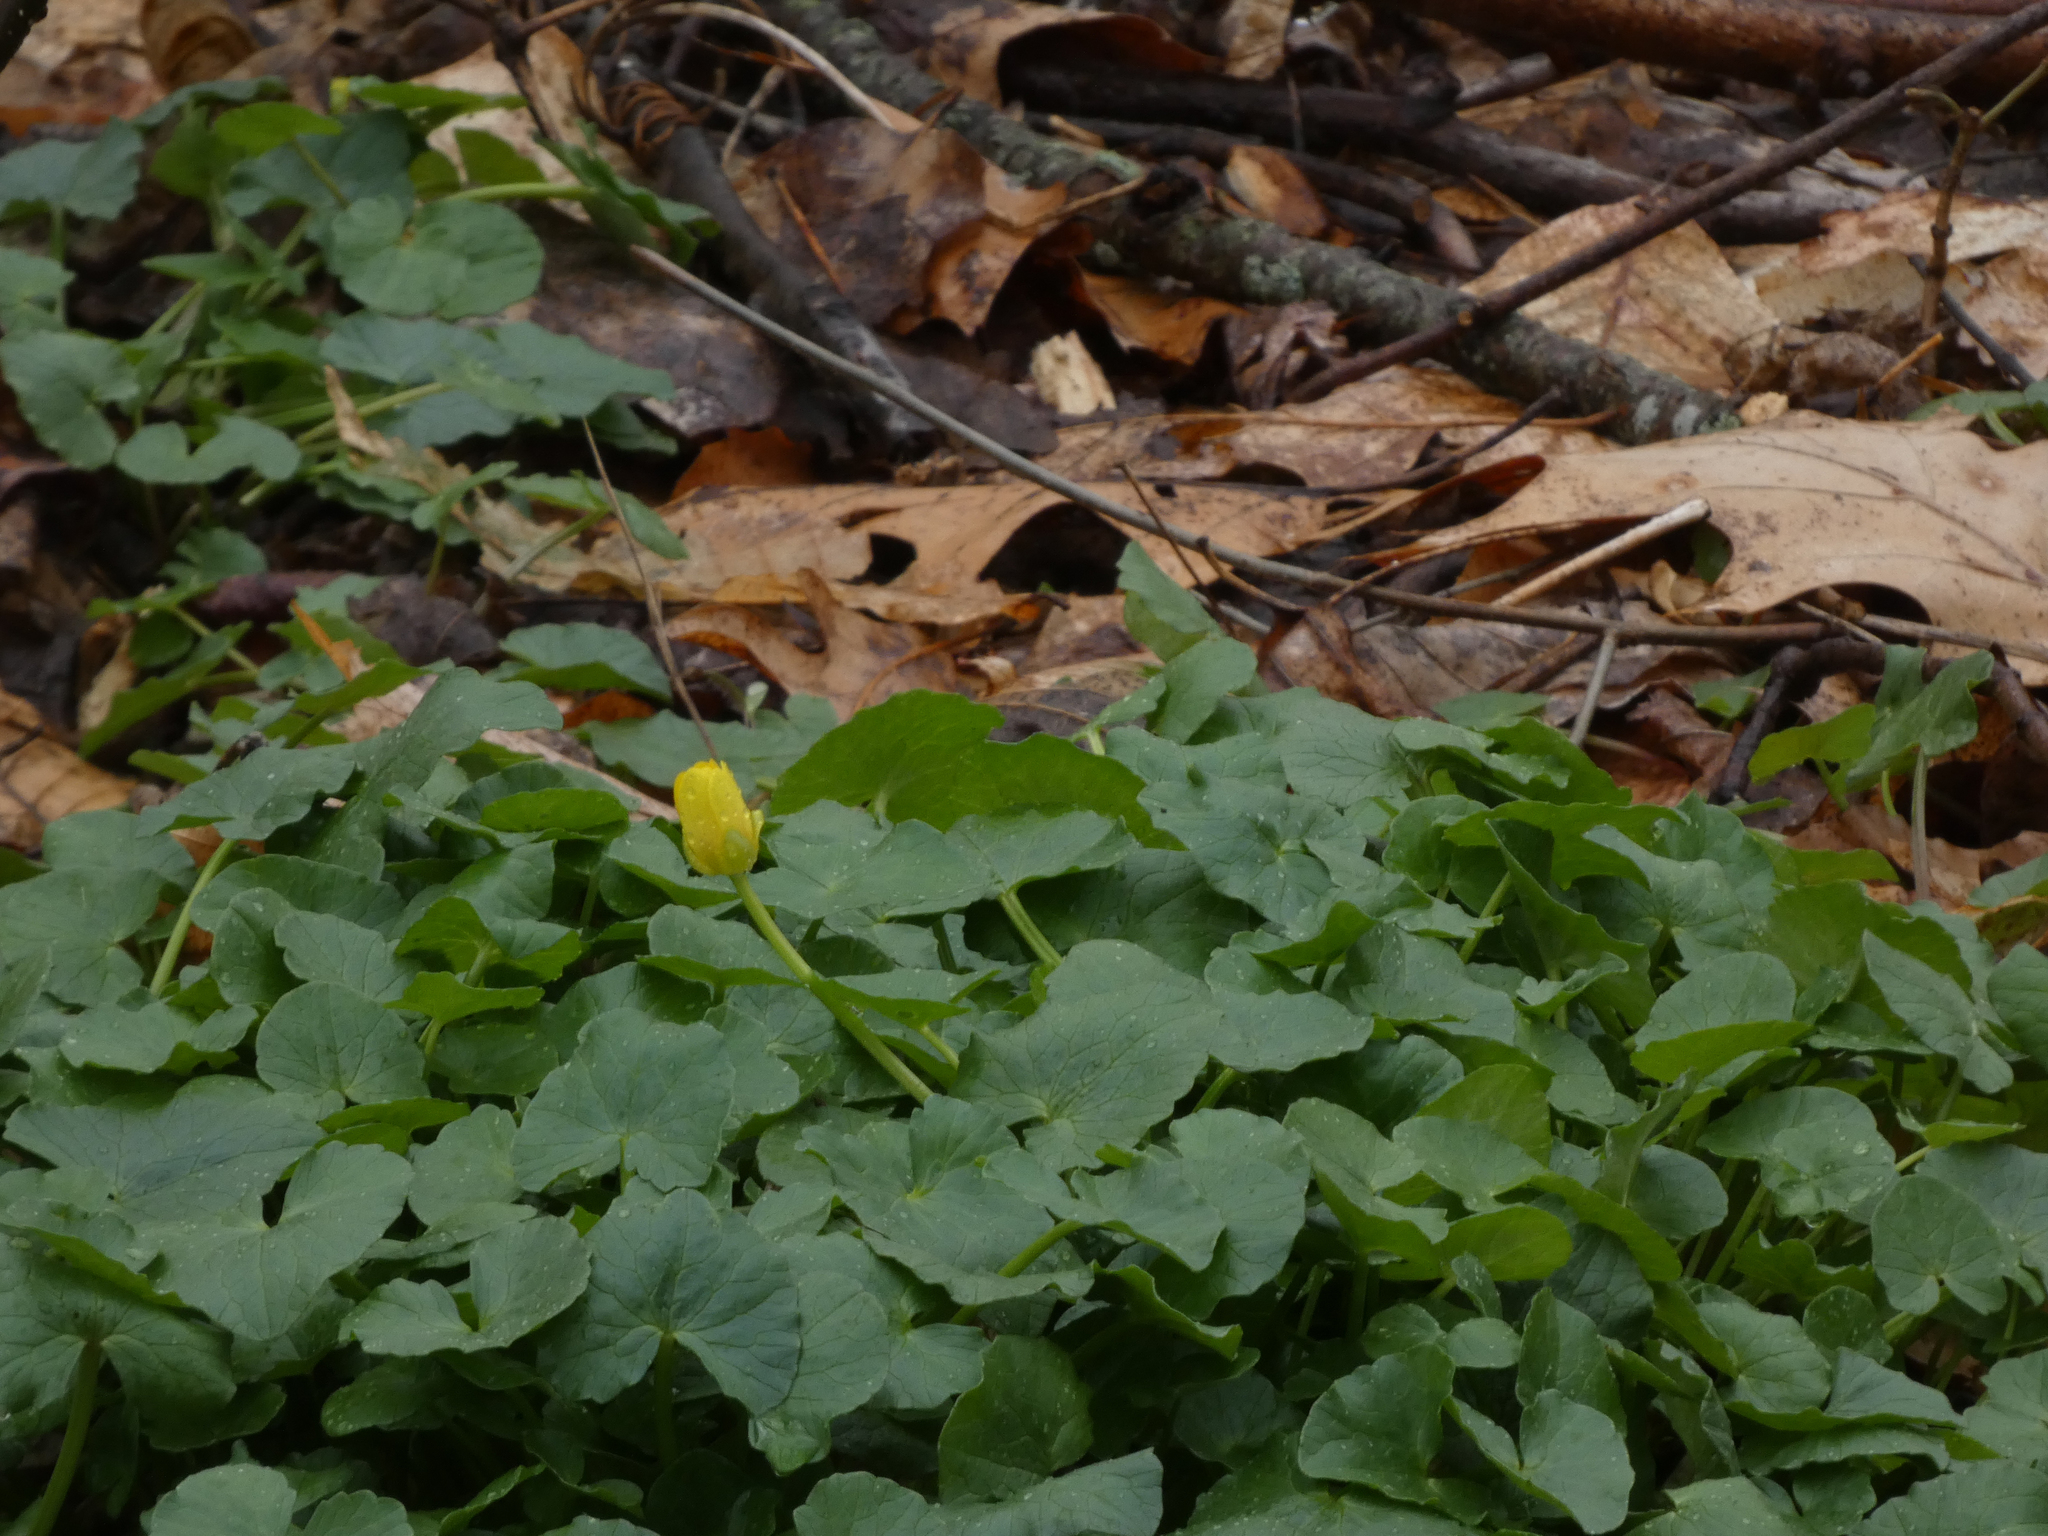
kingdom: Plantae
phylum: Tracheophyta
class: Magnoliopsida
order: Ranunculales
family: Ranunculaceae
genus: Ficaria
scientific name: Ficaria verna
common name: Lesser celandine
